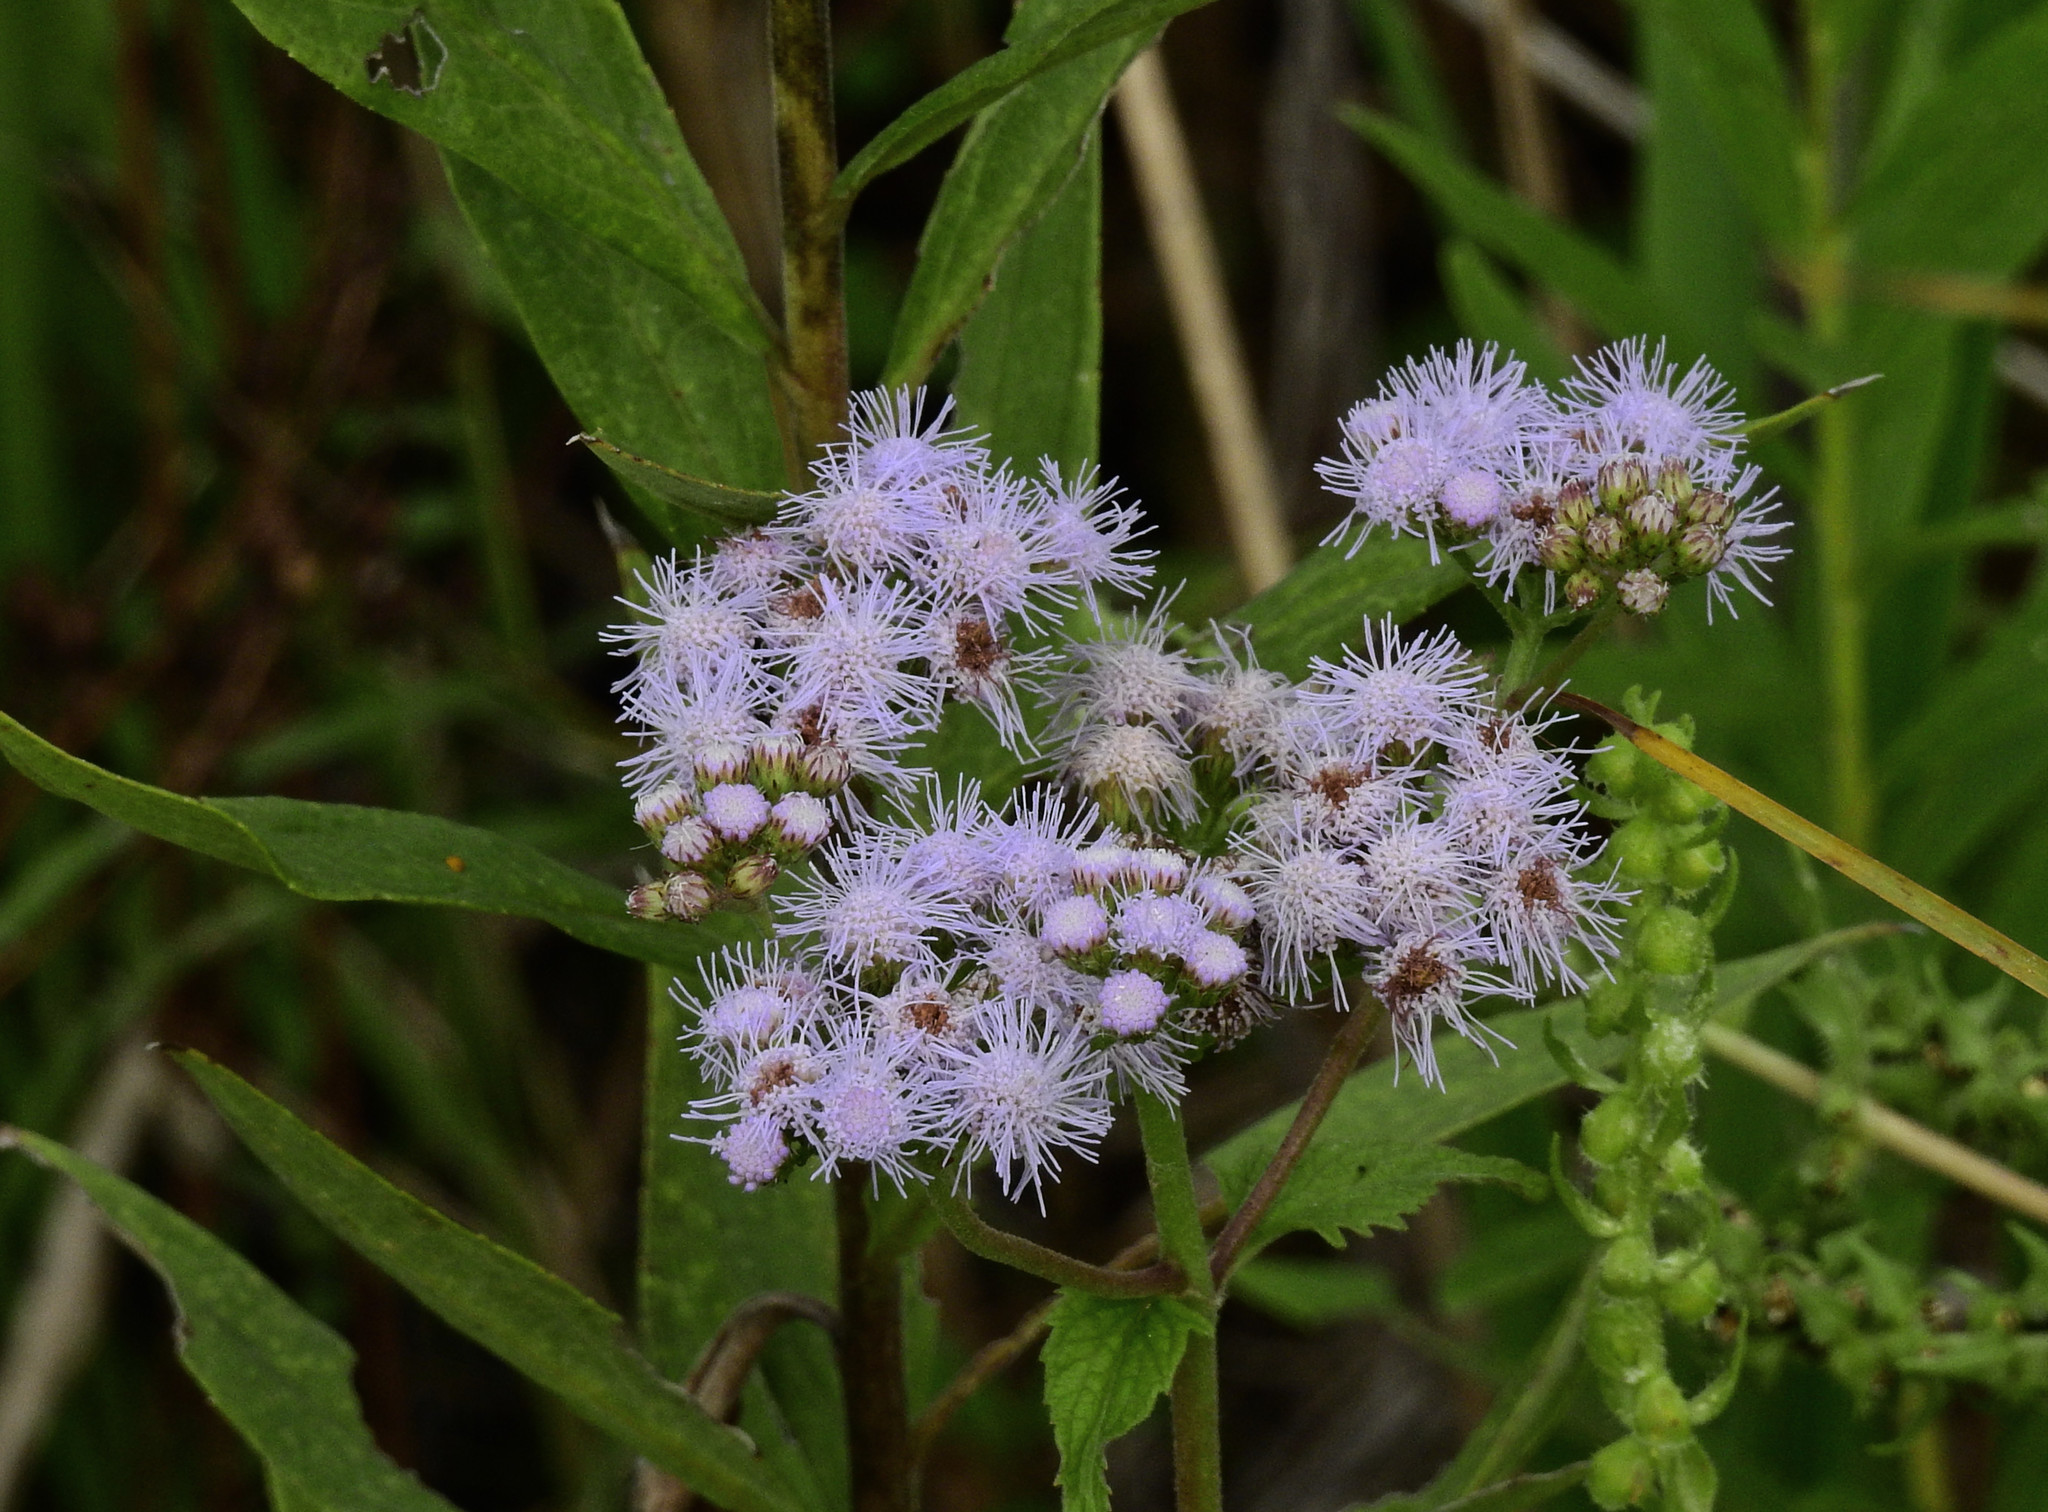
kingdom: Plantae
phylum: Tracheophyta
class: Magnoliopsida
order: Asterales
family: Asteraceae
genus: Conoclinium
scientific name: Conoclinium coelestinum
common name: Blue mistflower
